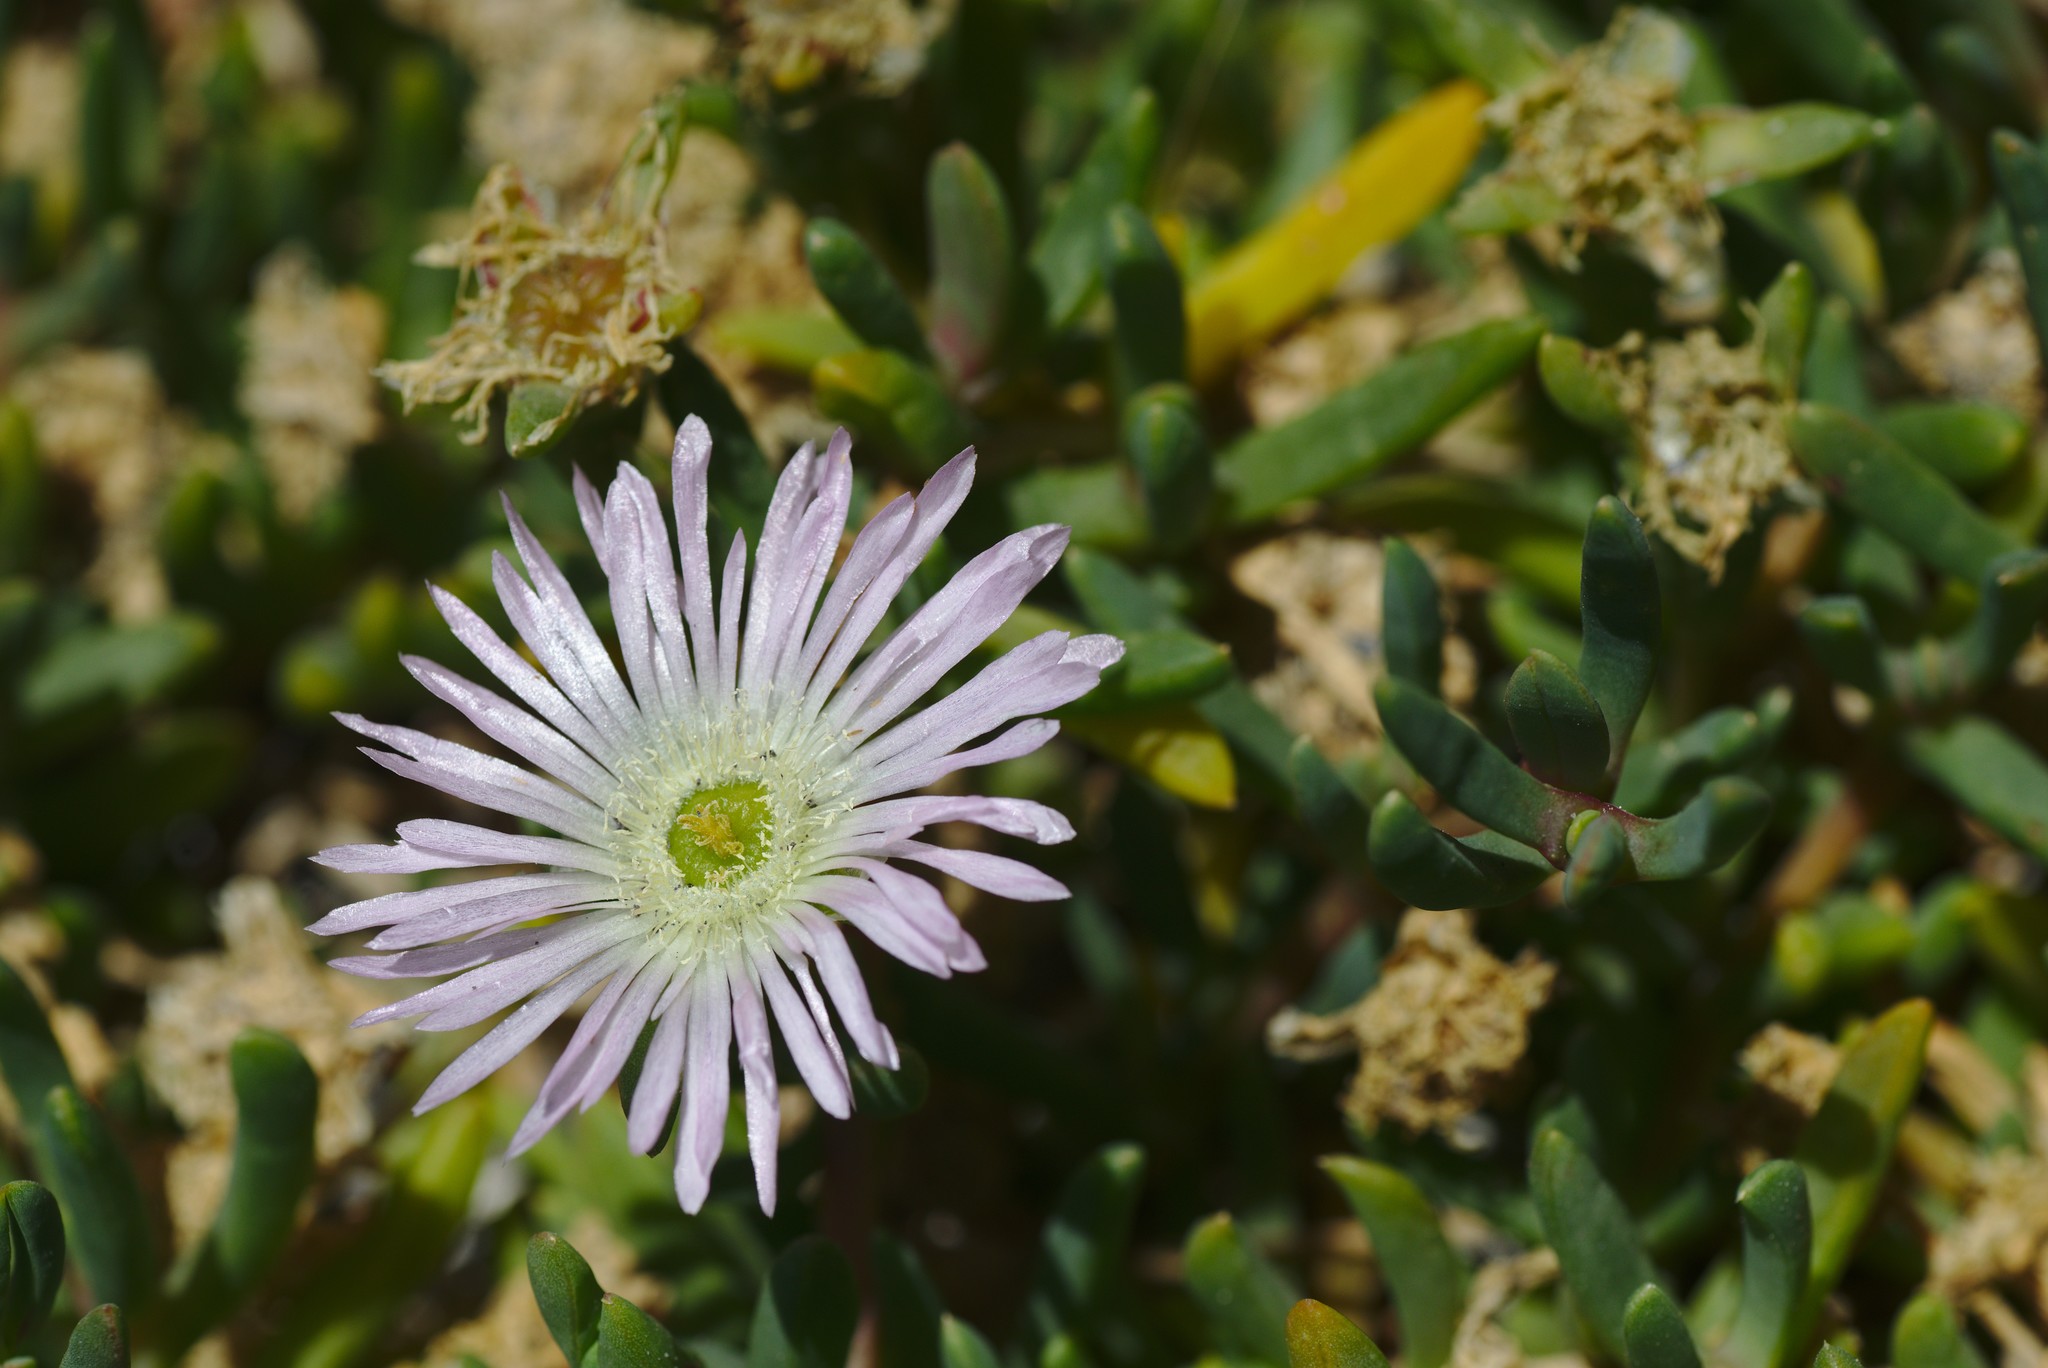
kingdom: Plantae
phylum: Tracheophyta
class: Magnoliopsida
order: Caryophyllales
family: Aizoaceae
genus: Disphyma
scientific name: Disphyma australe
